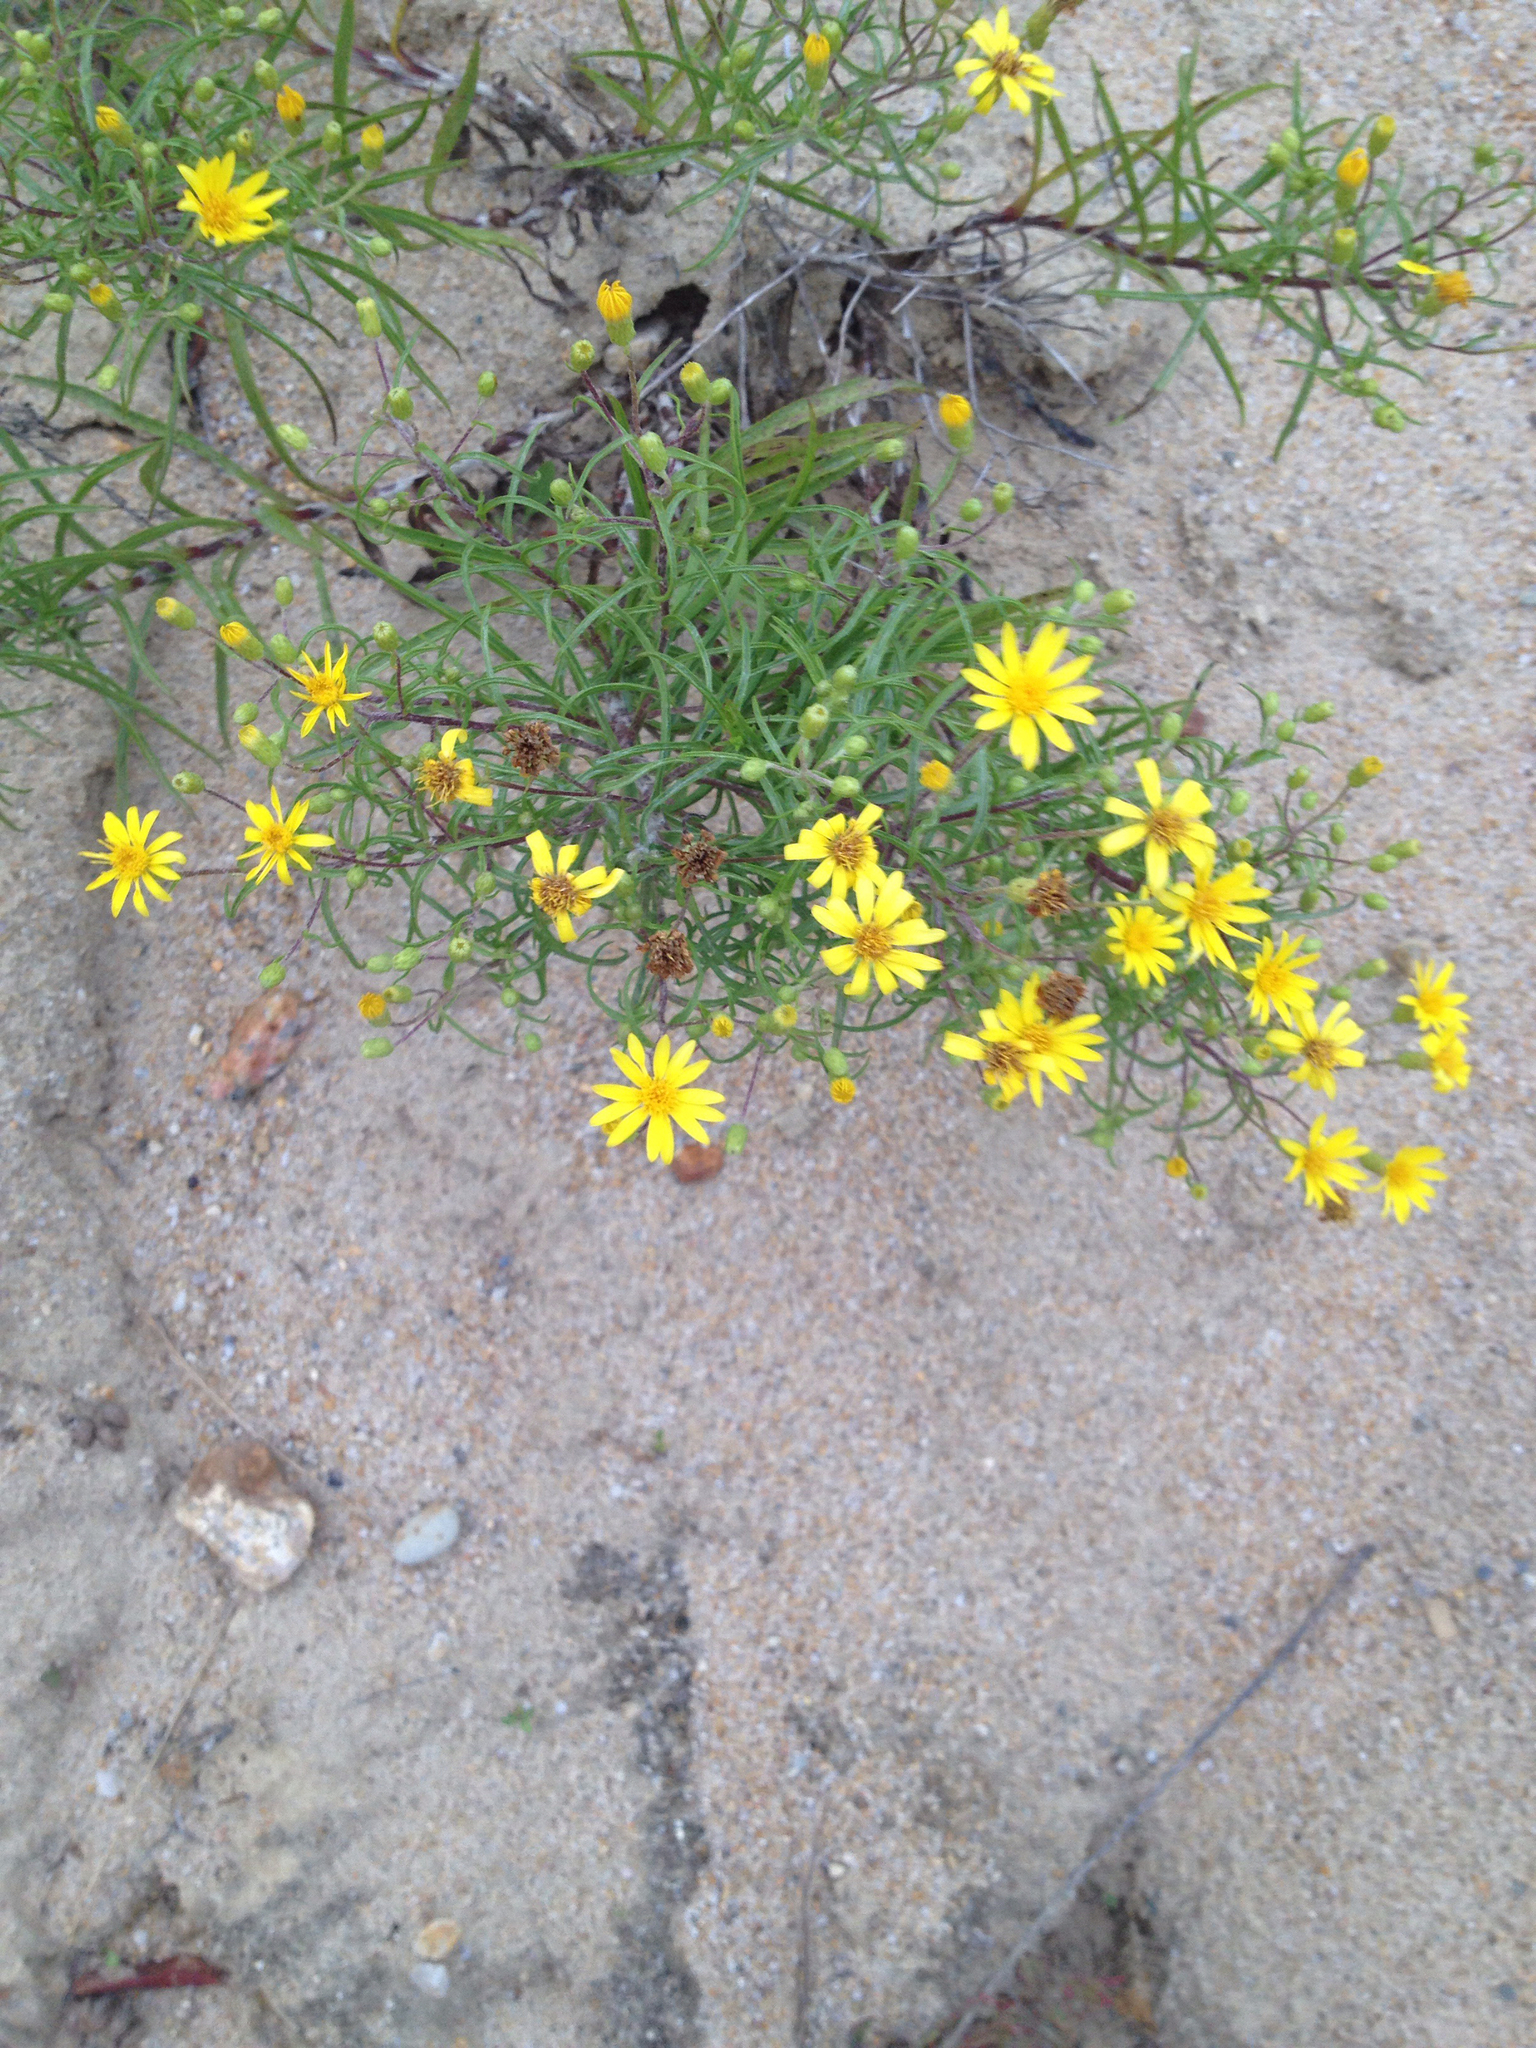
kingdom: Plantae
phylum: Tracheophyta
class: Magnoliopsida
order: Asterales
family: Asteraceae
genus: Pityopsis
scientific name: Pityopsis falcata
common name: Sickle-leaved goldenaster
